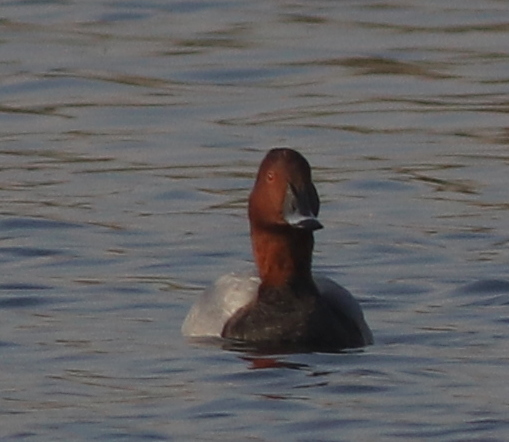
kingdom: Animalia
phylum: Chordata
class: Aves
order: Anseriformes
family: Anatidae
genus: Aythya
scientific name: Aythya ferina
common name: Common pochard
